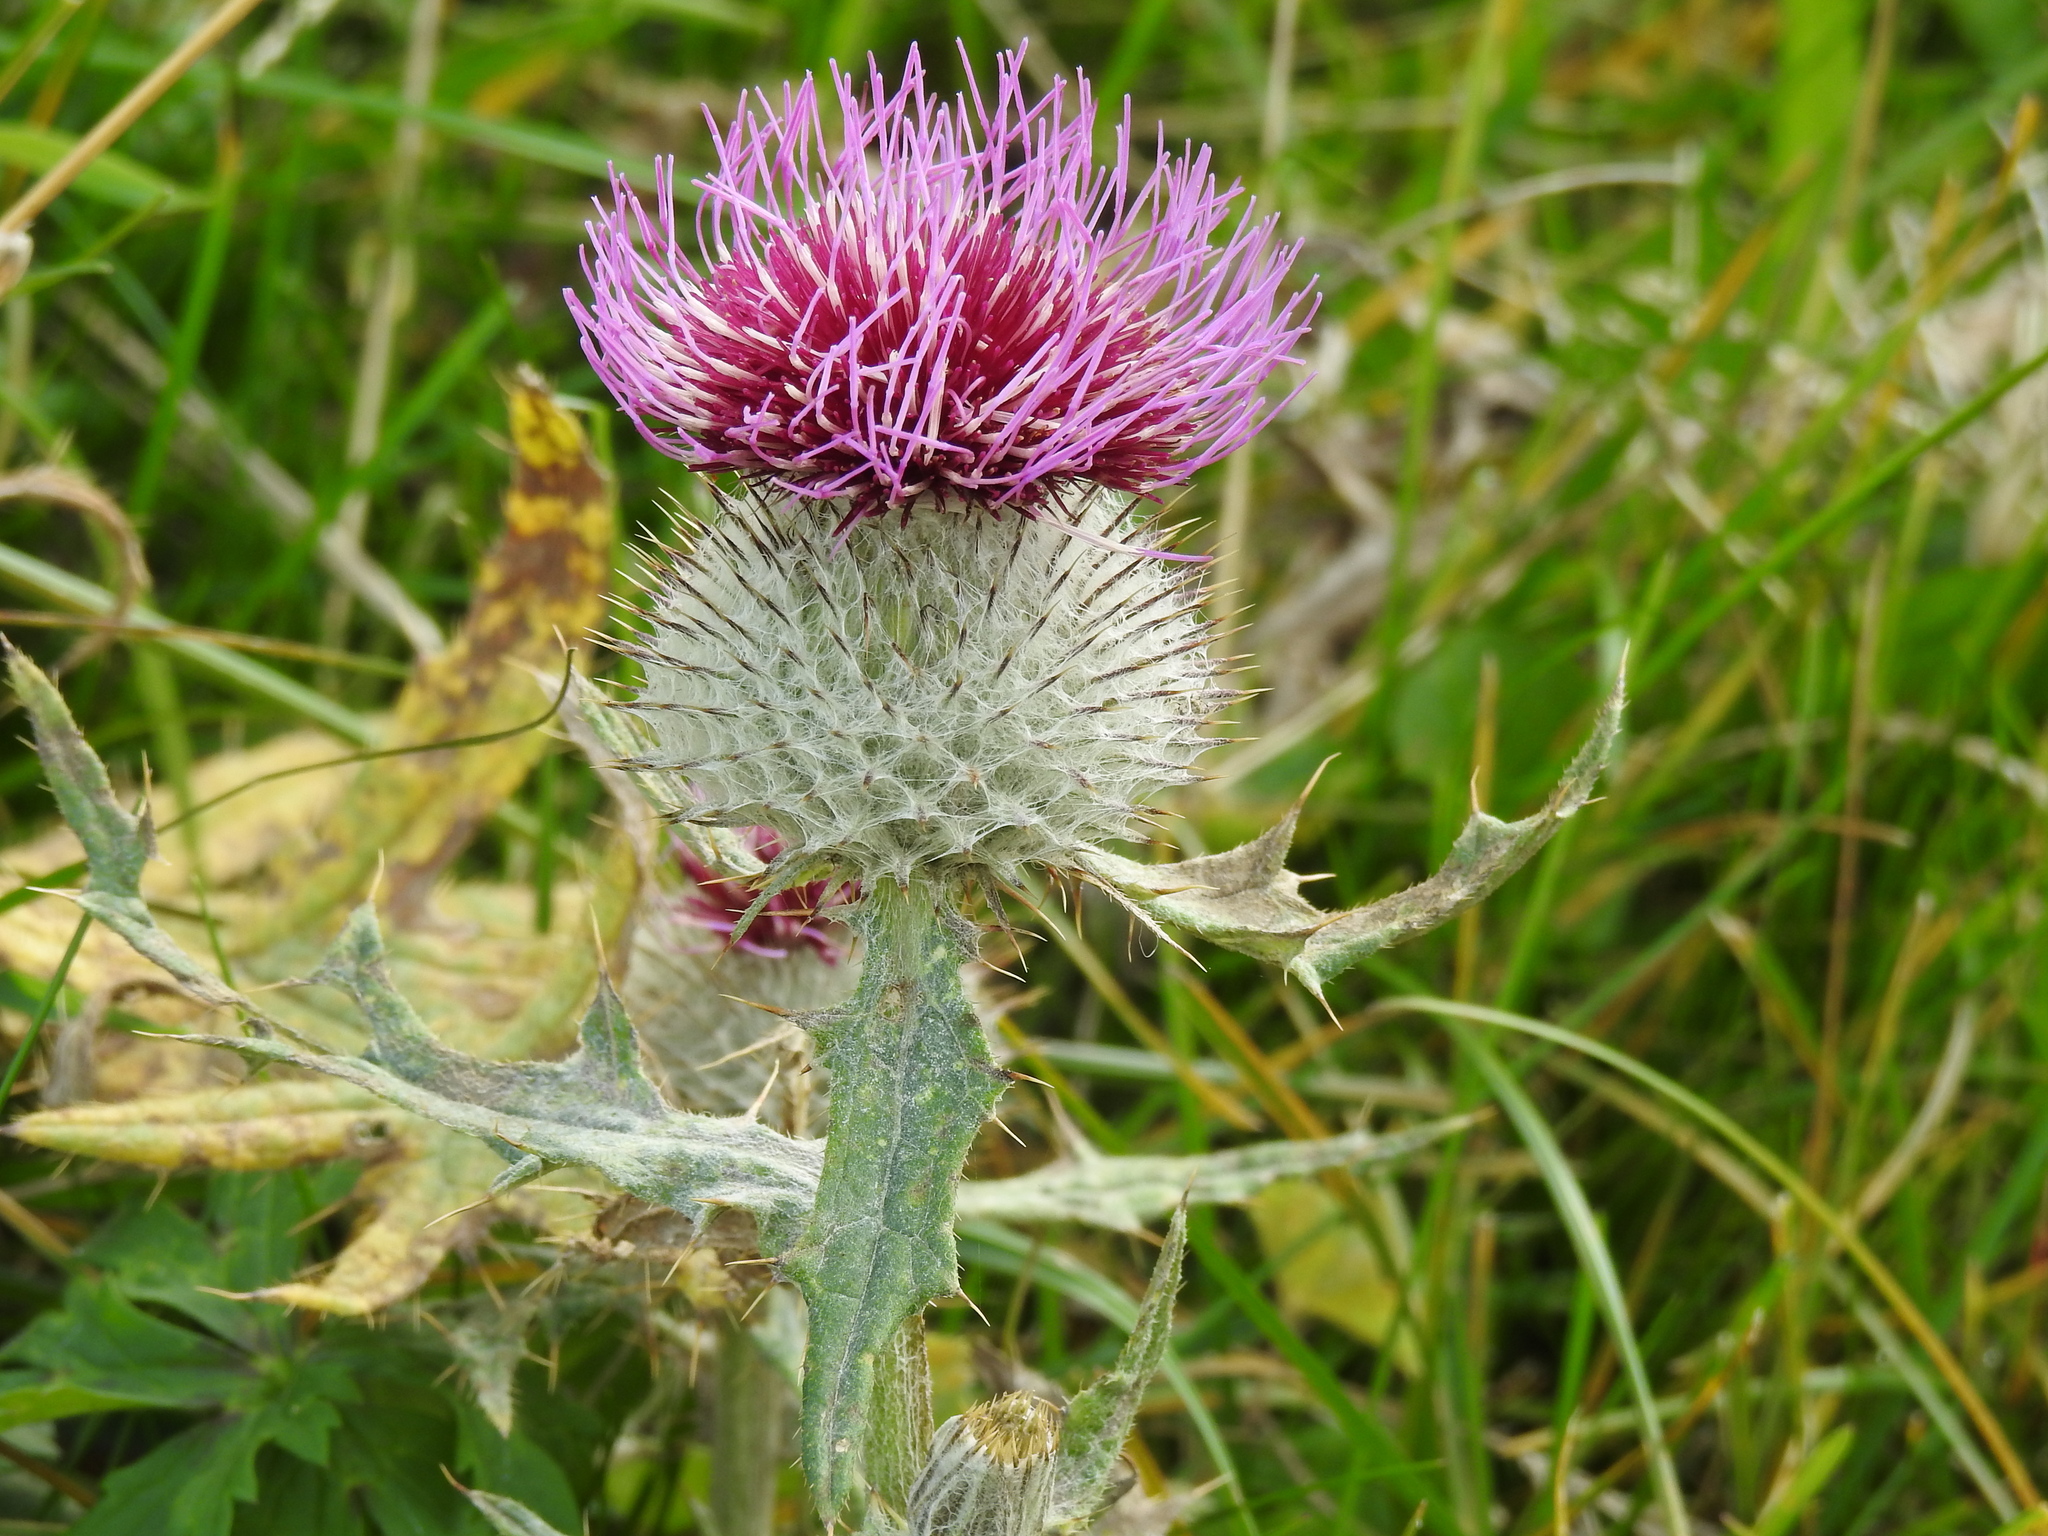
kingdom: Plantae
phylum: Tracheophyta
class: Magnoliopsida
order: Asterales
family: Asteraceae
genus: Lophiolepis
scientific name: Lophiolepis eriophora
